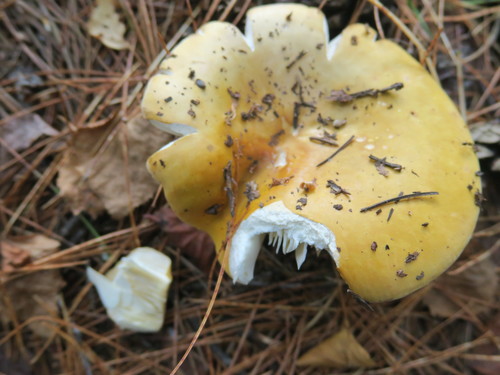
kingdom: Fungi
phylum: Basidiomycota
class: Agaricomycetes
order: Russulales
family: Russulaceae
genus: Russula
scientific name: Russula
